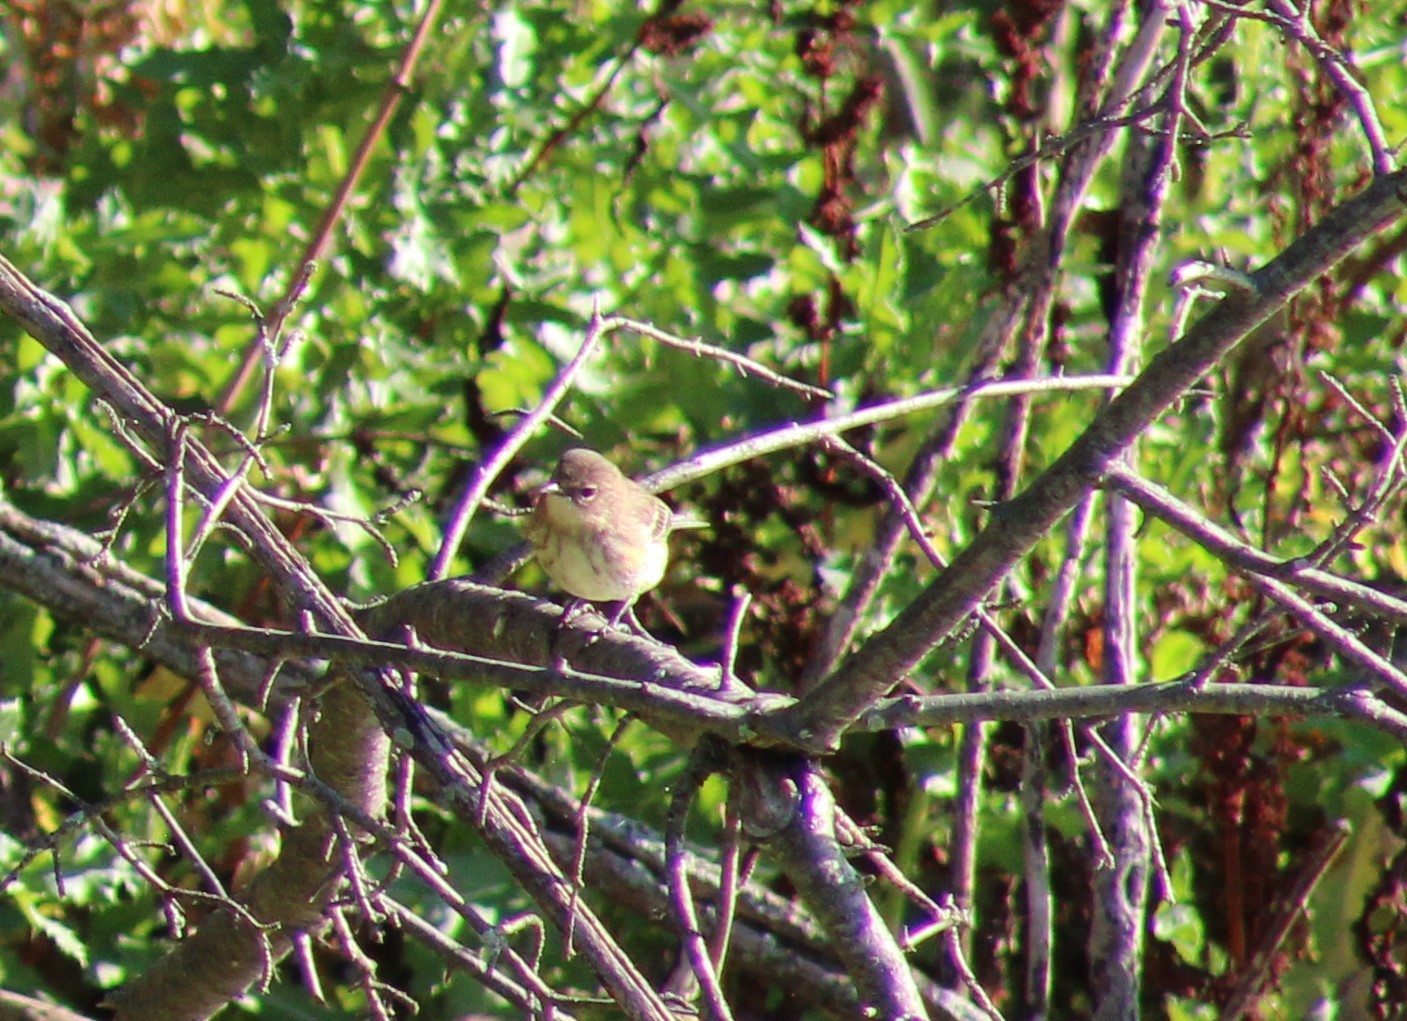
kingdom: Animalia
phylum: Chordata
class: Aves
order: Passeriformes
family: Parulidae
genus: Setophaga
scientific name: Setophaga coronata
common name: Myrtle warbler
